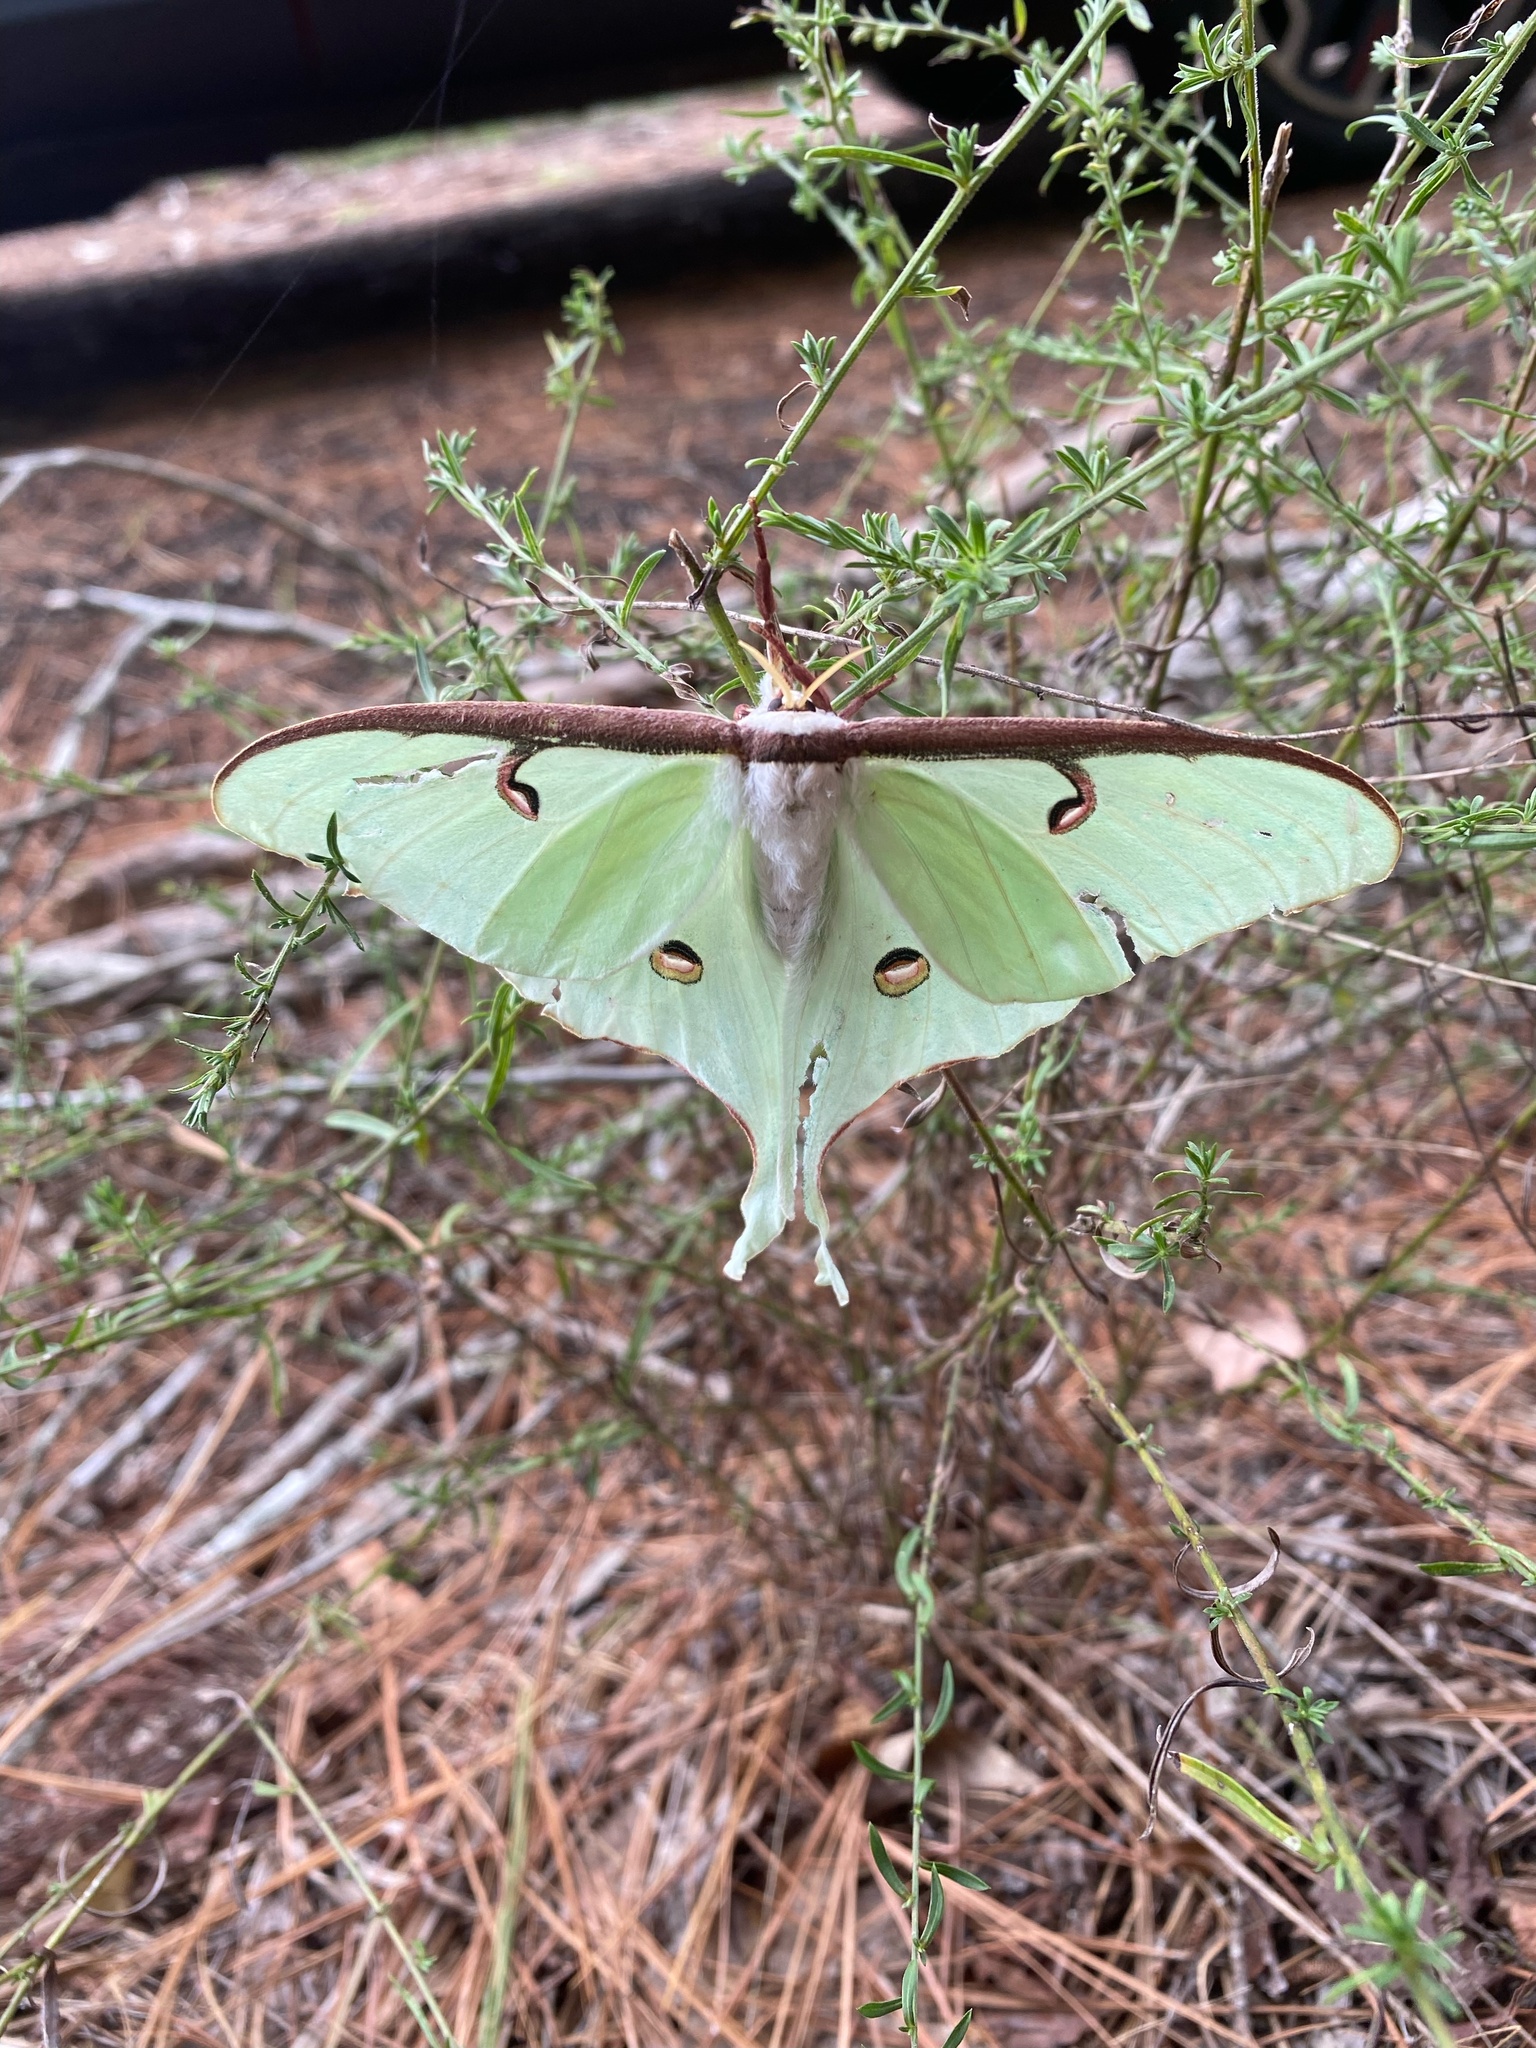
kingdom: Animalia
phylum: Arthropoda
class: Insecta
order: Lepidoptera
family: Saturniidae
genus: Actias
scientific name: Actias luna
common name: Luna moth
